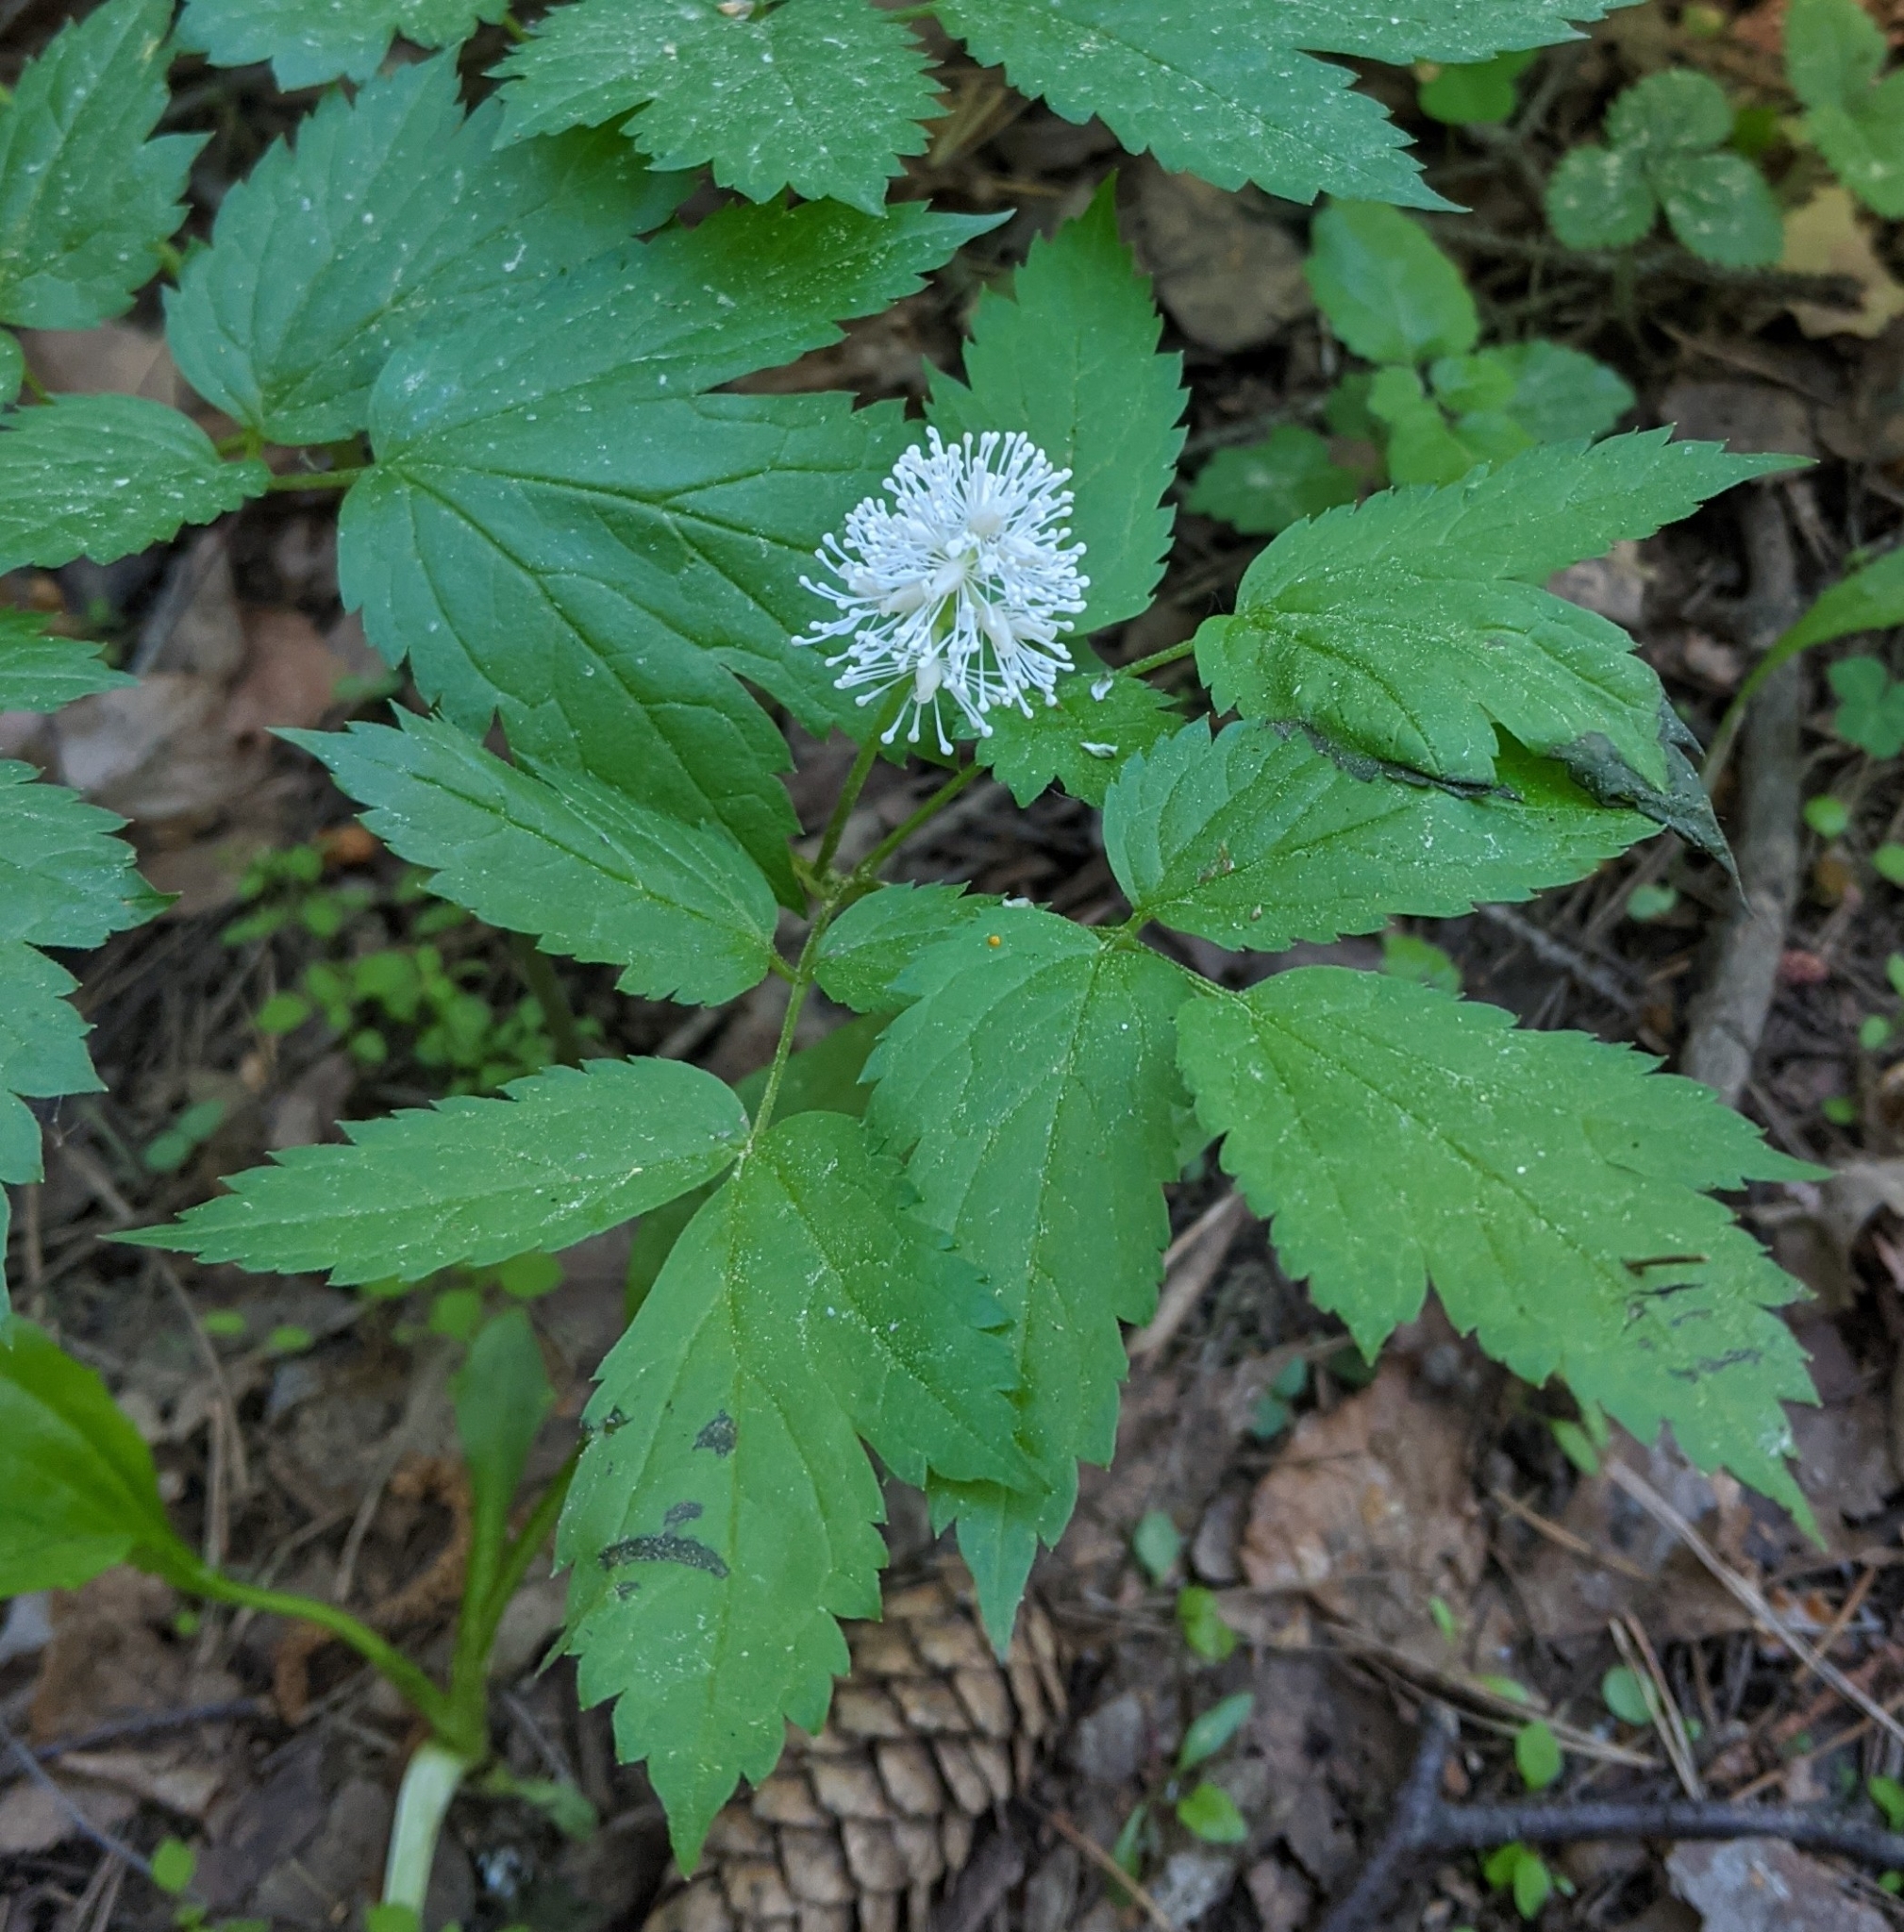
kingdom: Plantae
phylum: Tracheophyta
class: Magnoliopsida
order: Ranunculales
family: Ranunculaceae
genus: Actaea
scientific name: Actaea spicata
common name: Baneberry
